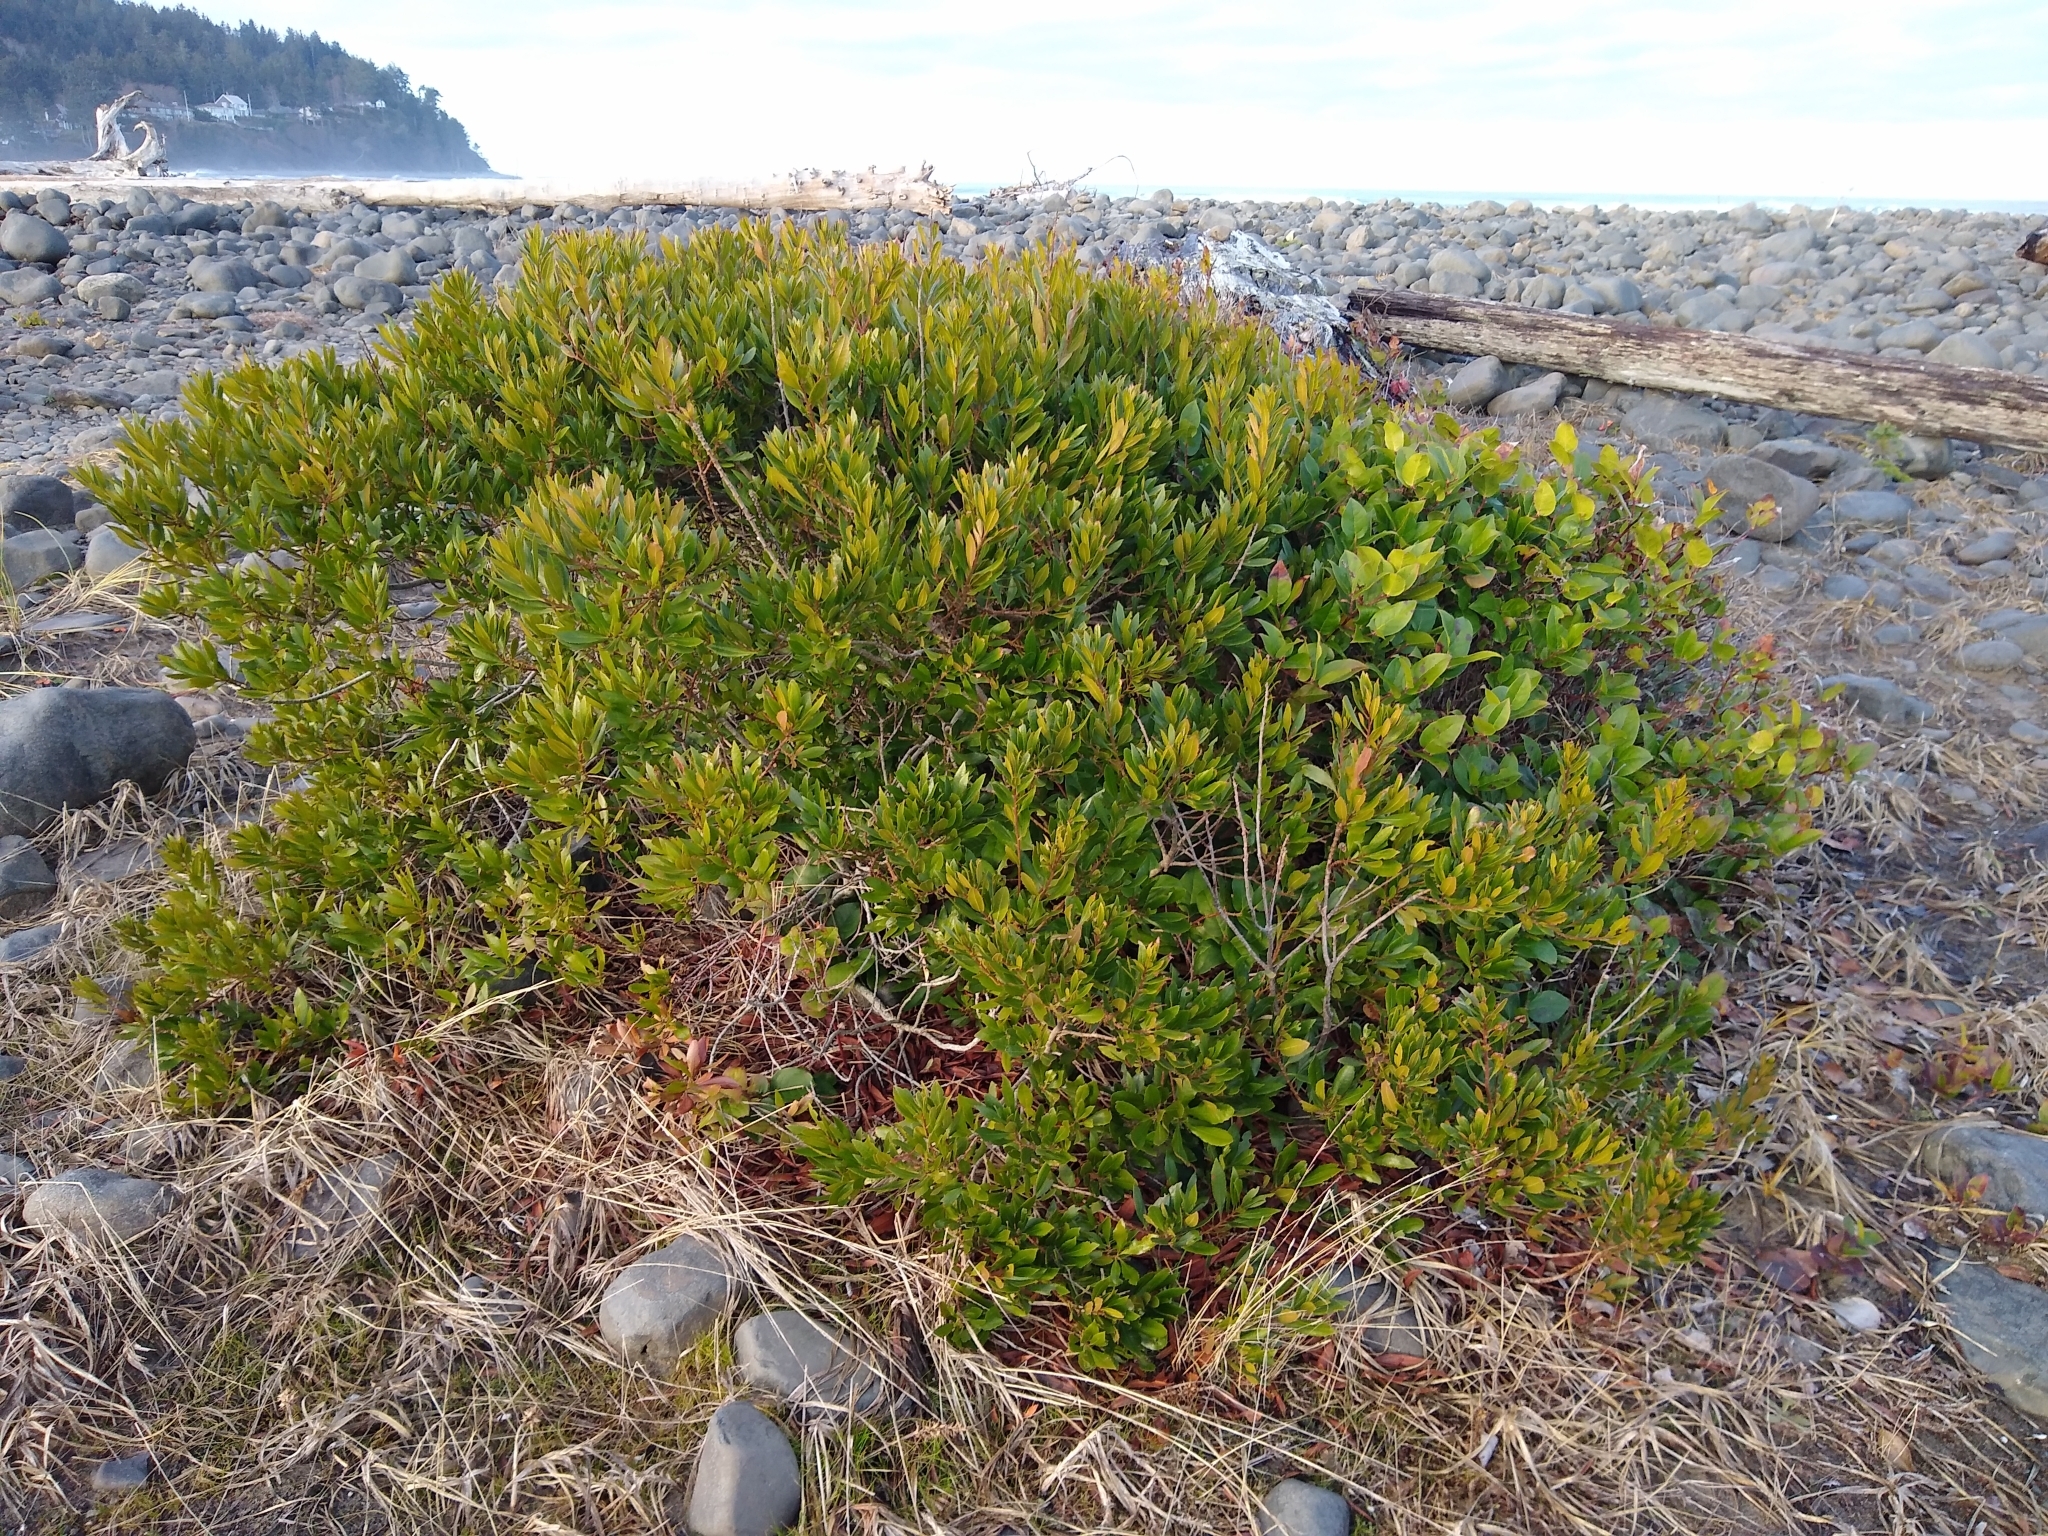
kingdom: Plantae
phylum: Tracheophyta
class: Magnoliopsida
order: Fagales
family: Myricaceae
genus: Morella
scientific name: Morella californica
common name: California wax-myrtle
